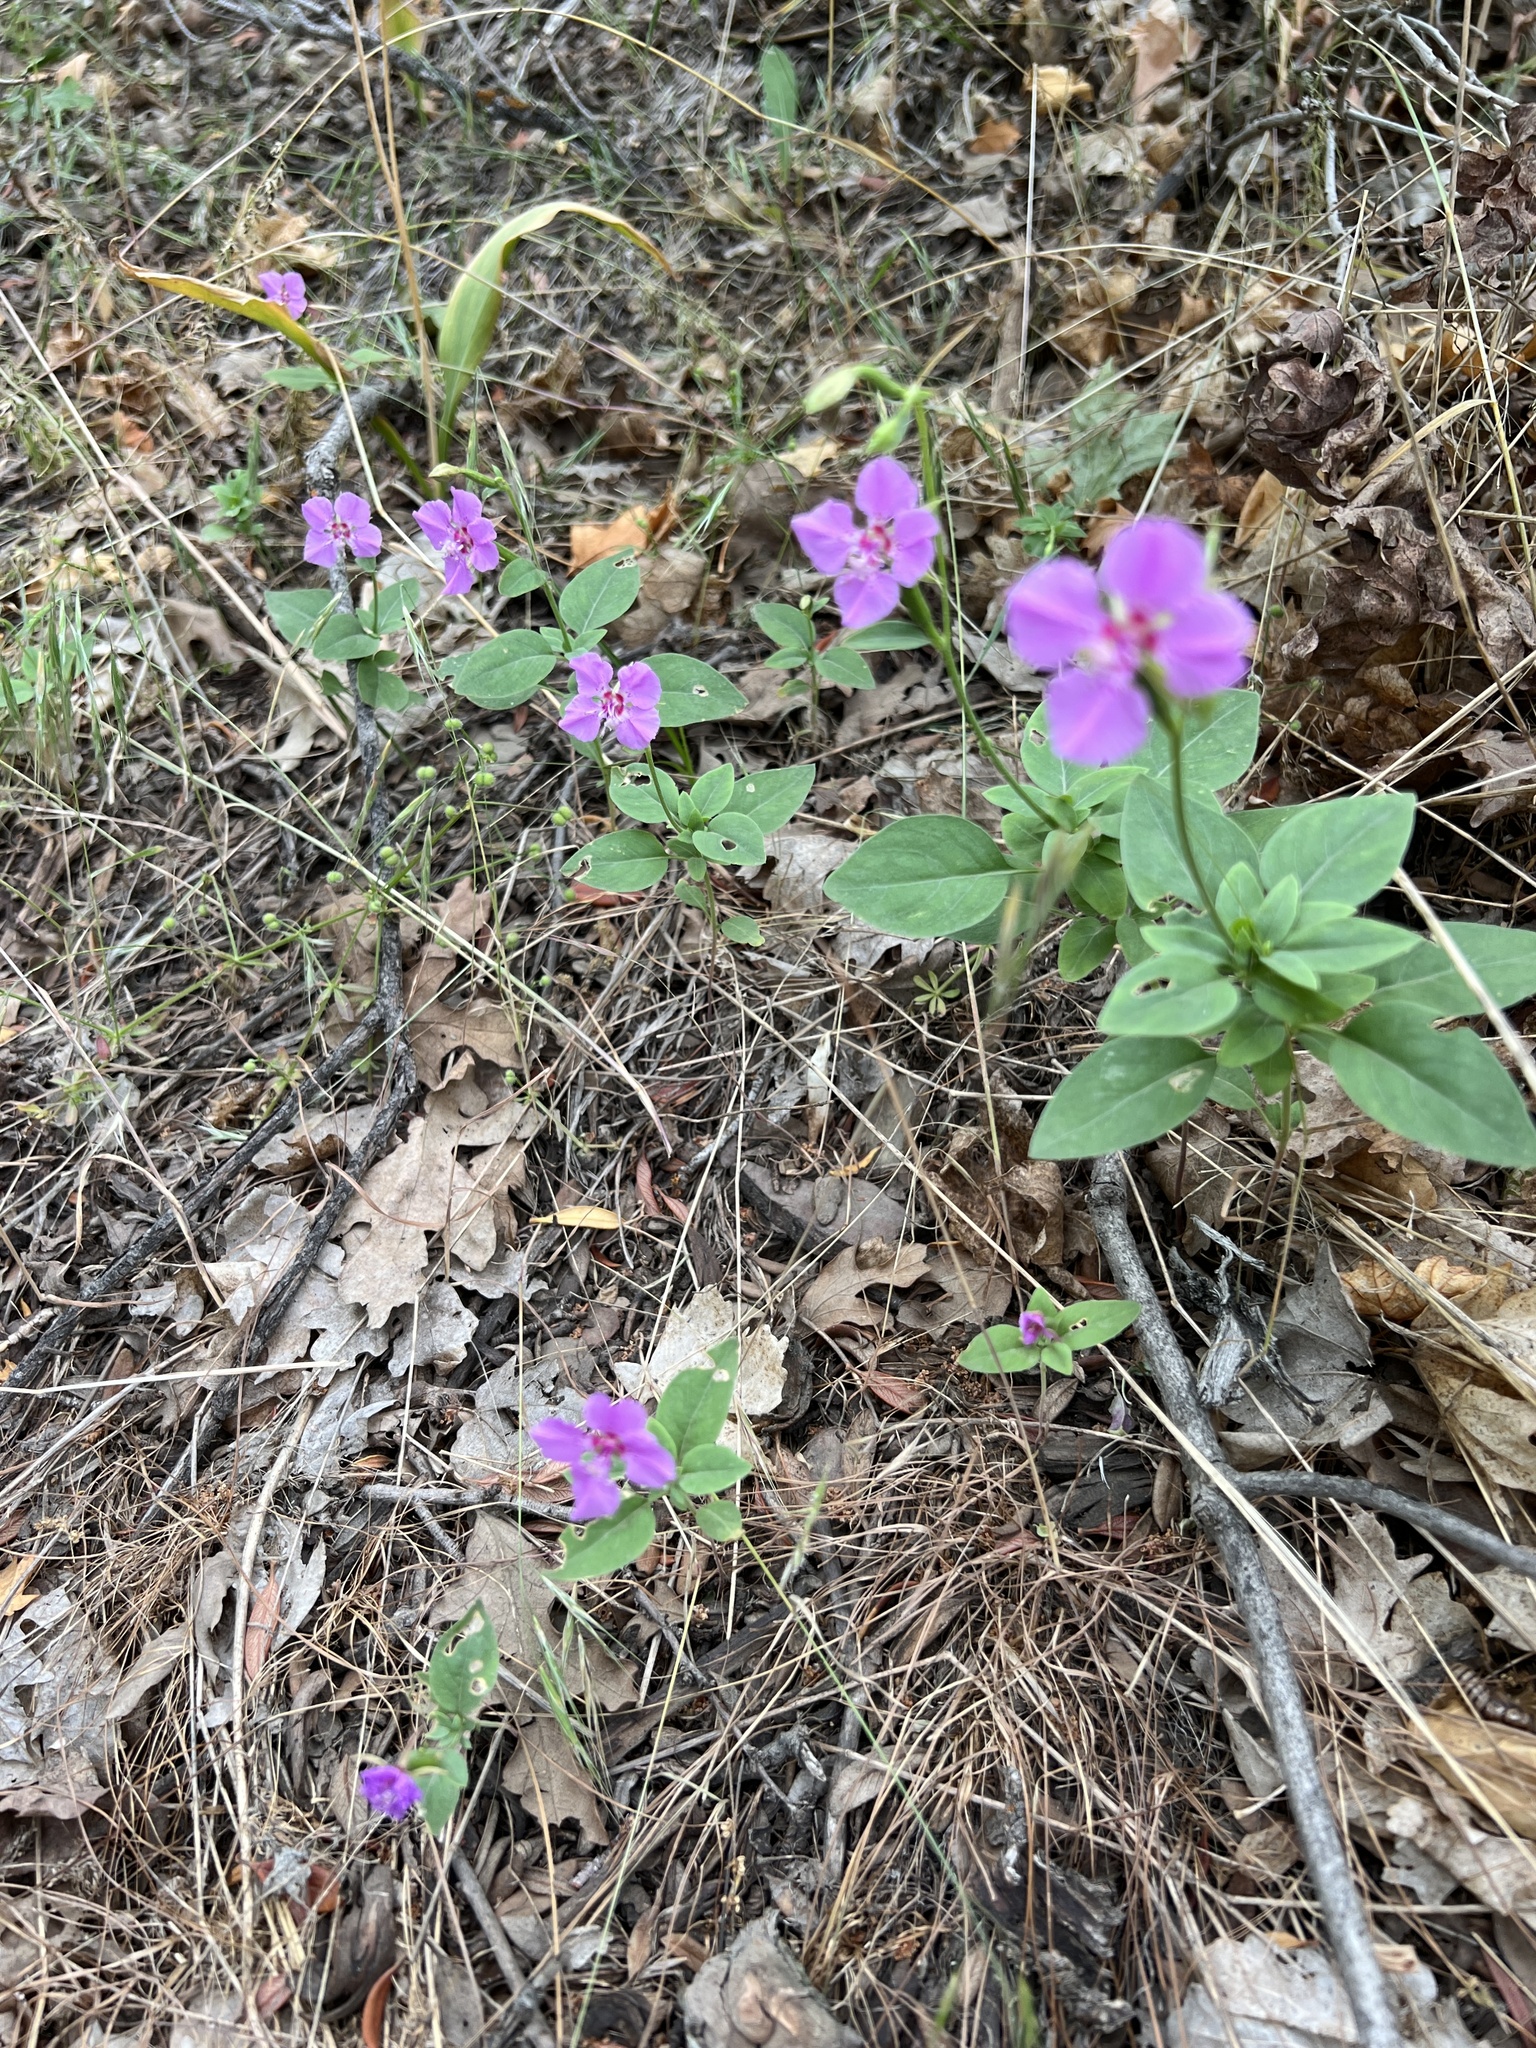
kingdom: Plantae
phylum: Tracheophyta
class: Magnoliopsida
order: Myrtales
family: Onagraceae
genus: Clarkia
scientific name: Clarkia rhomboidea
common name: Broadleaf clarkia
